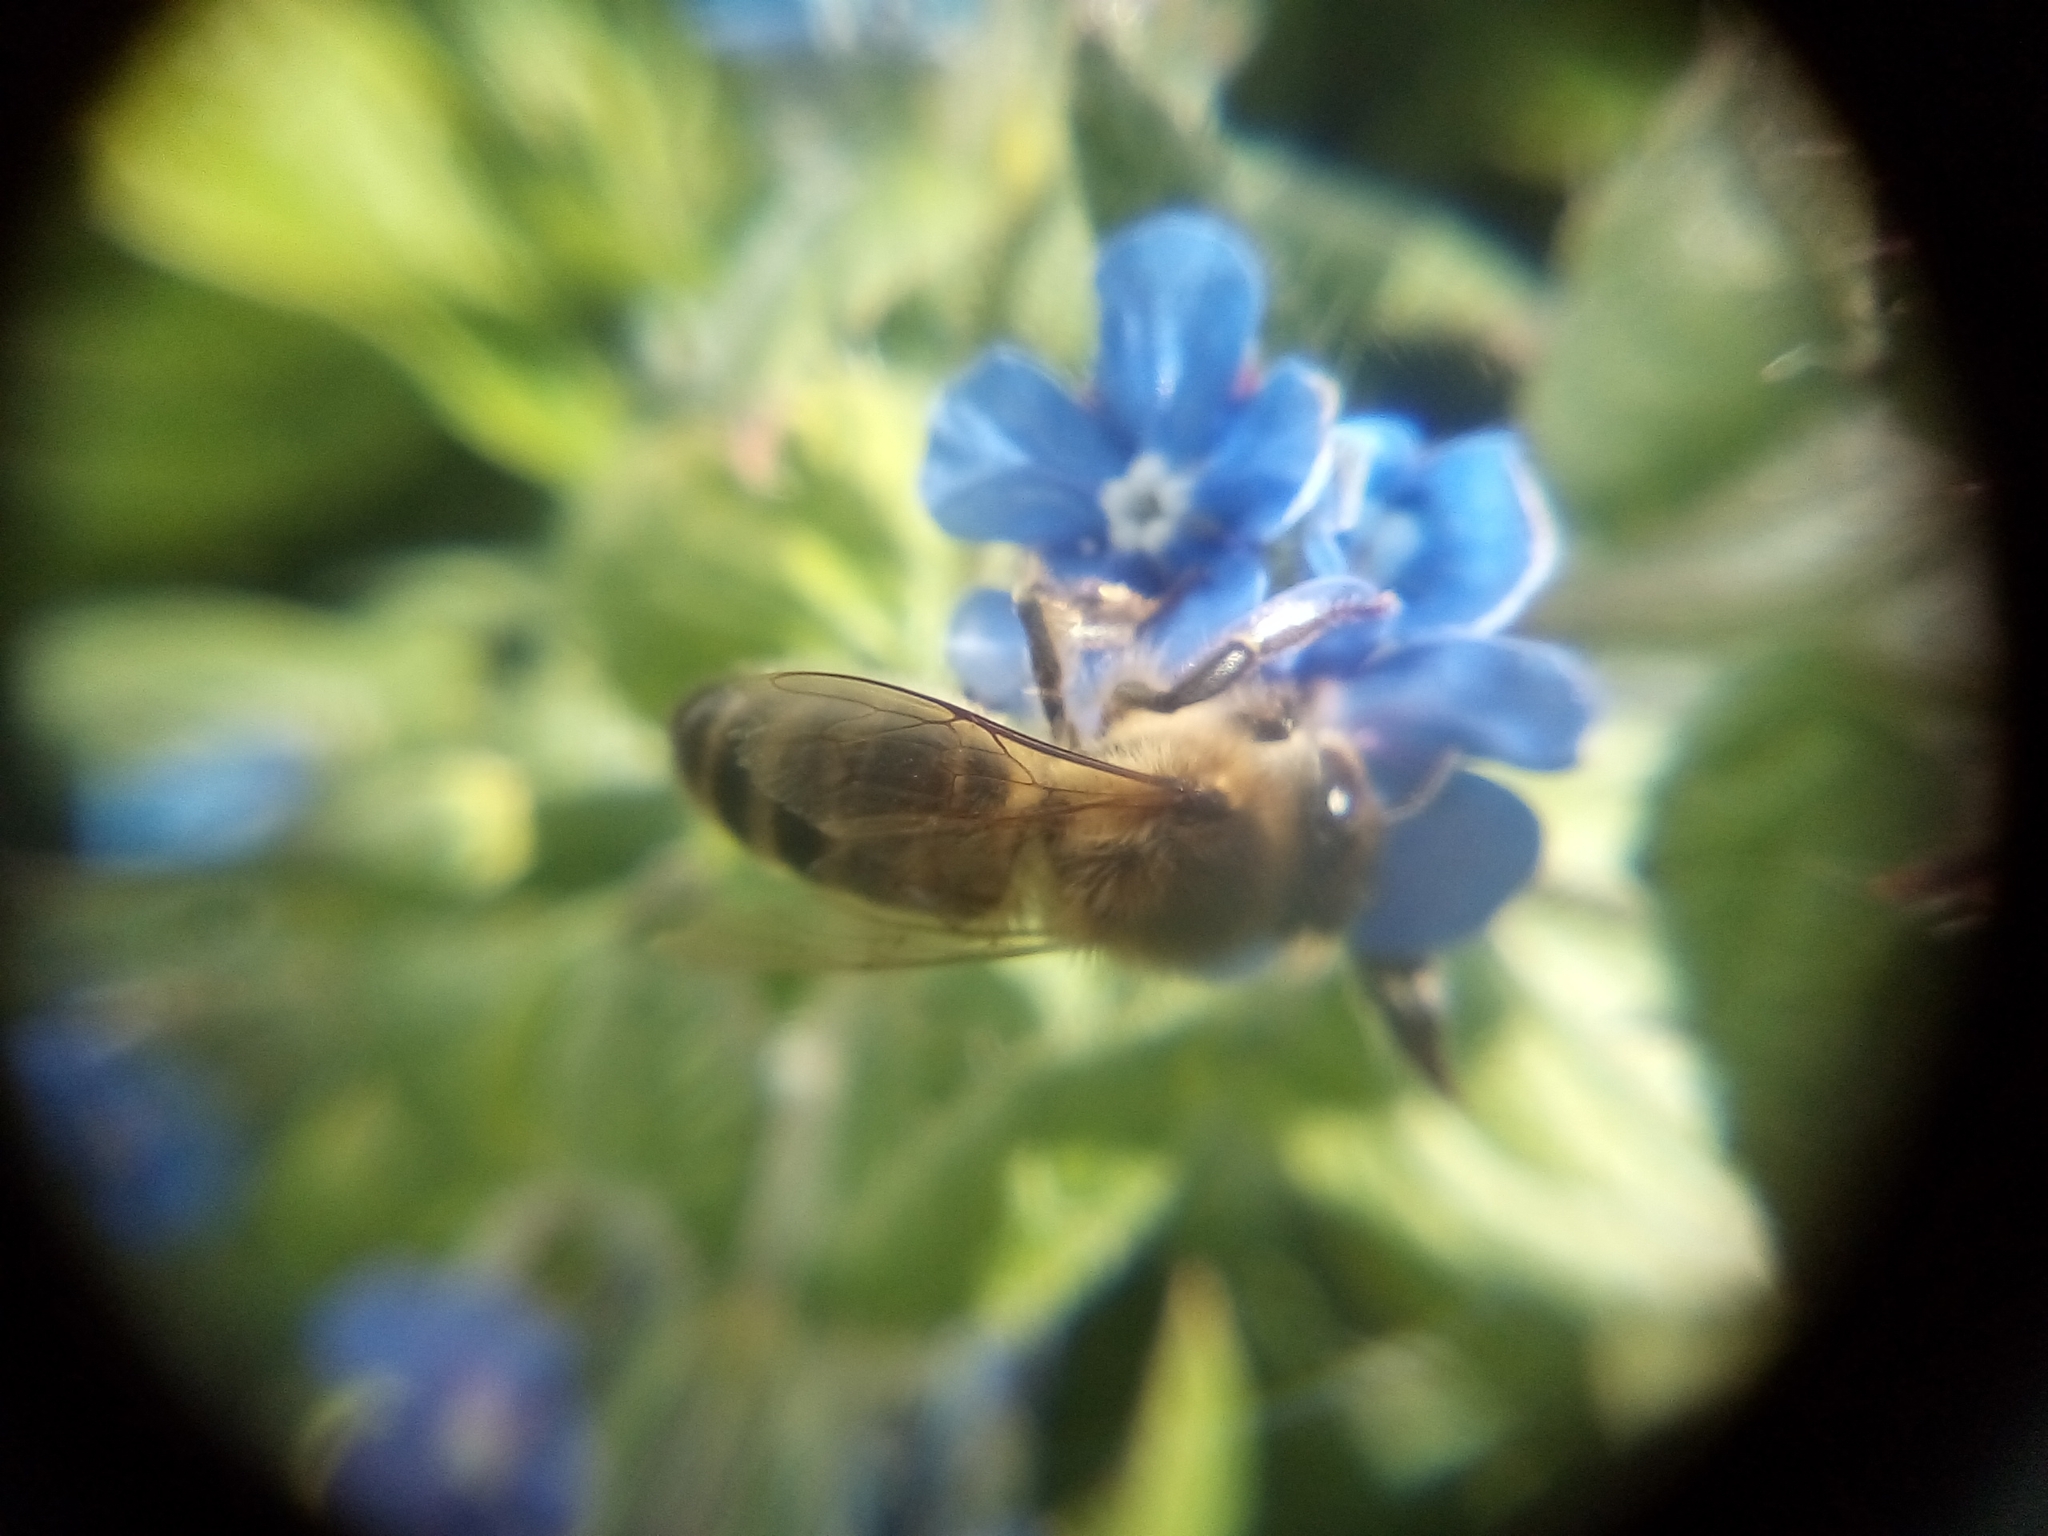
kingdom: Animalia
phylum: Arthropoda
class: Insecta
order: Hymenoptera
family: Apidae
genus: Apis
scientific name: Apis mellifera
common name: Honey bee
